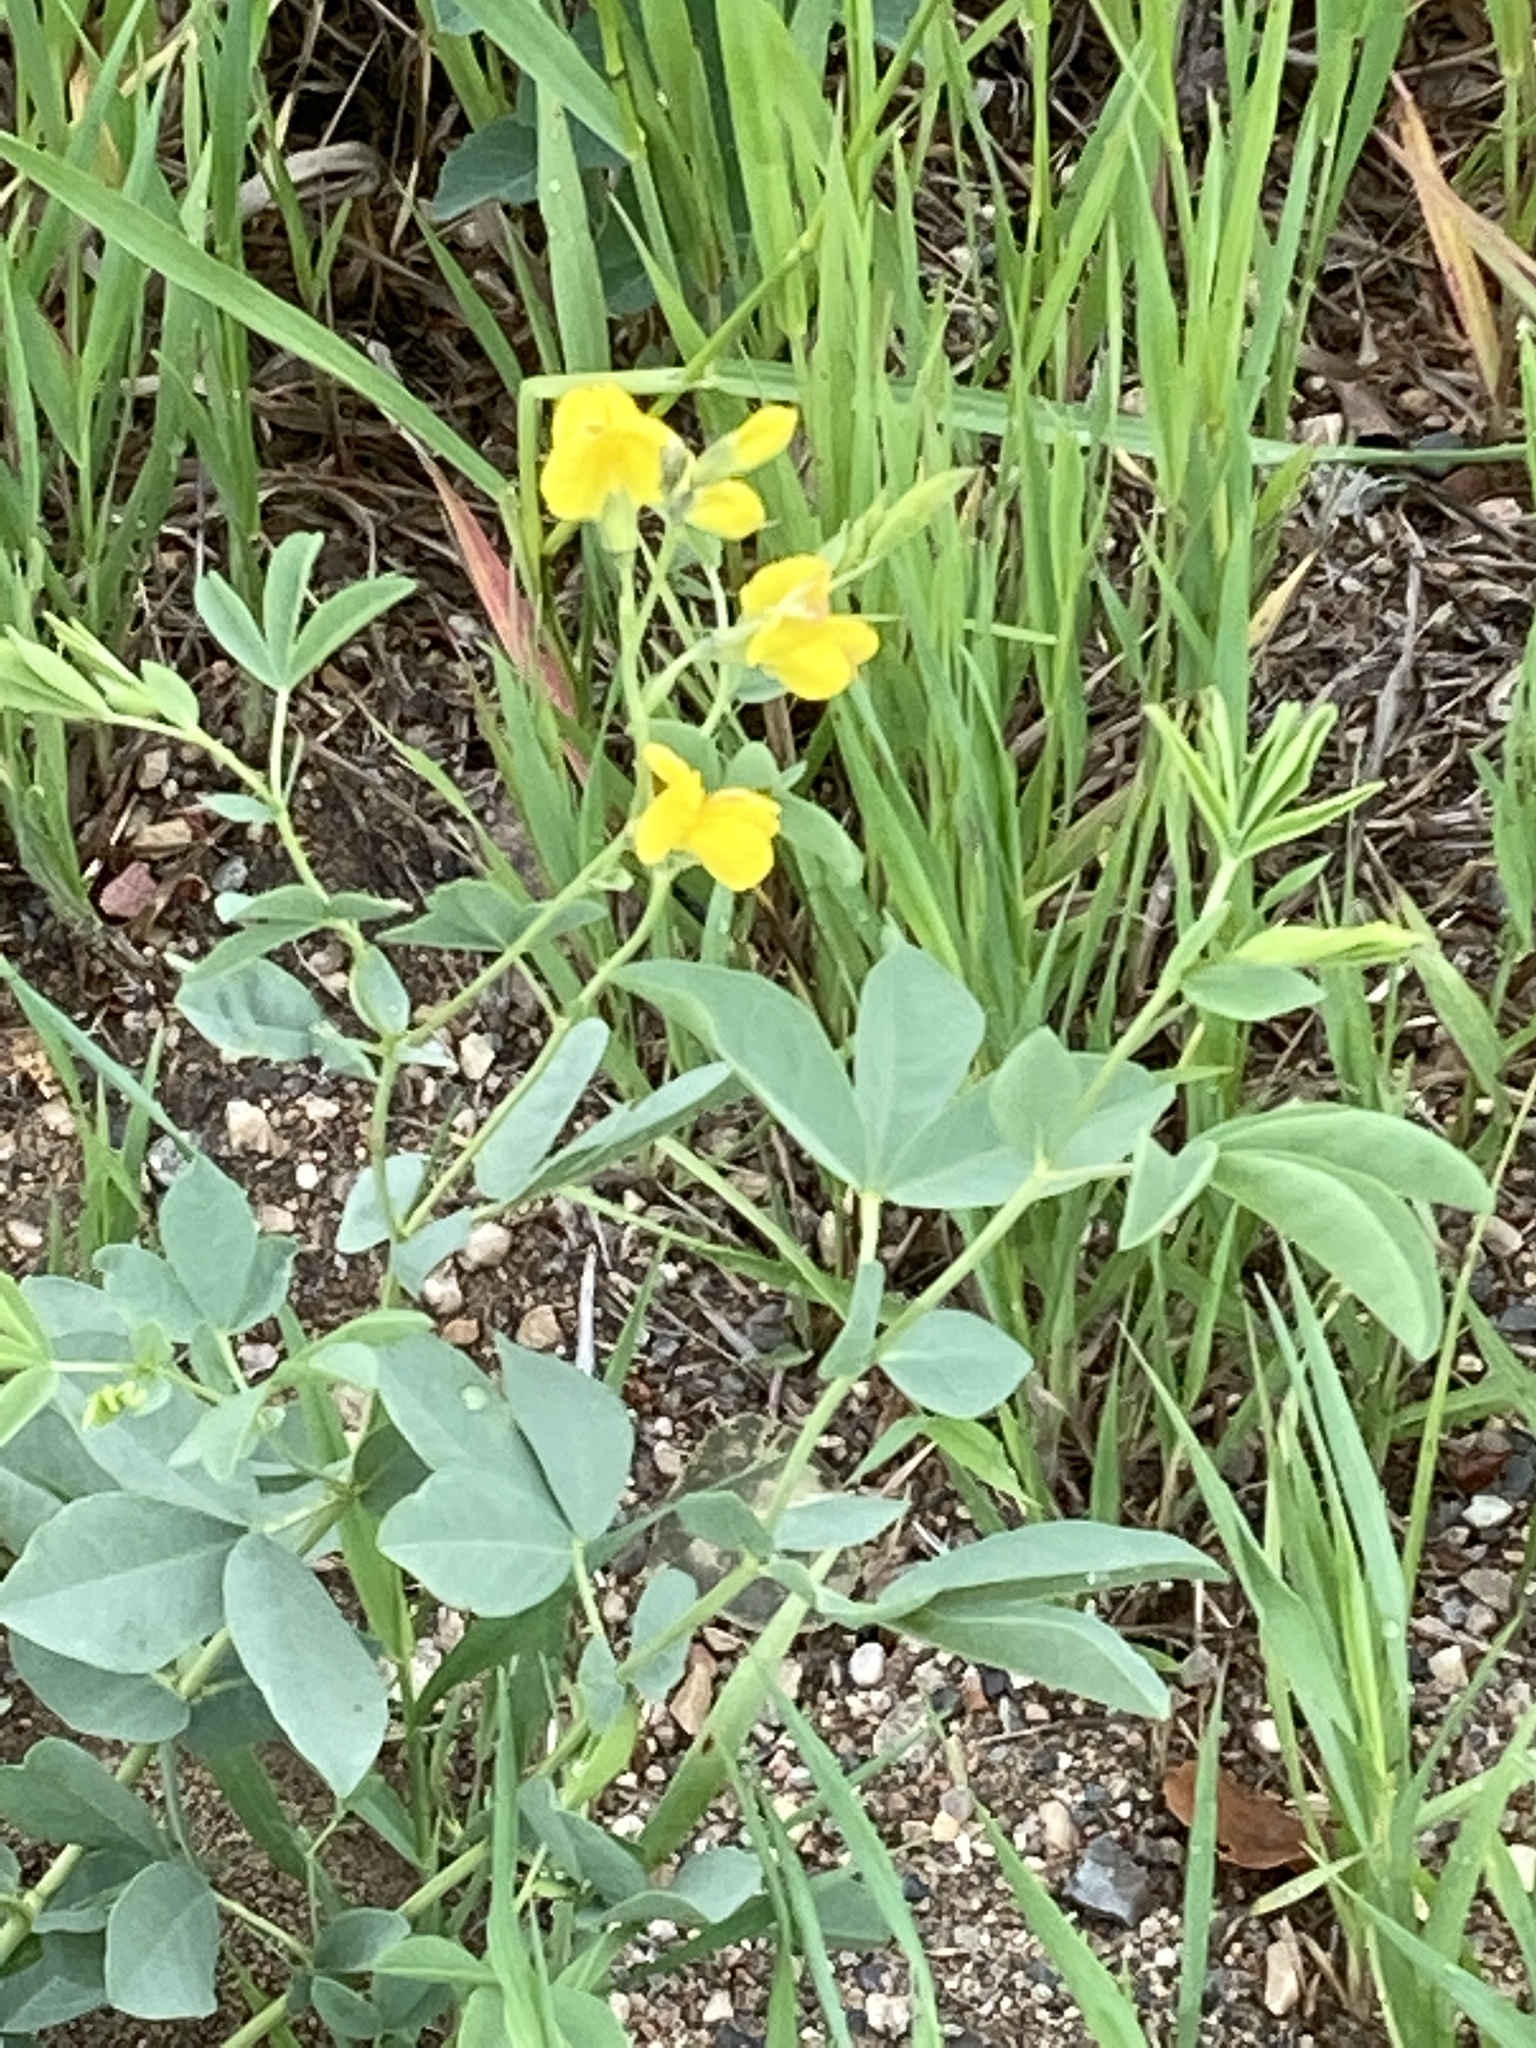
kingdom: Plantae
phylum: Tracheophyta
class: Magnoliopsida
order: Fabales
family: Fabaceae
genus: Thermopsis
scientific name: Thermopsis rhombifolia
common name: Circle-pod-pea
